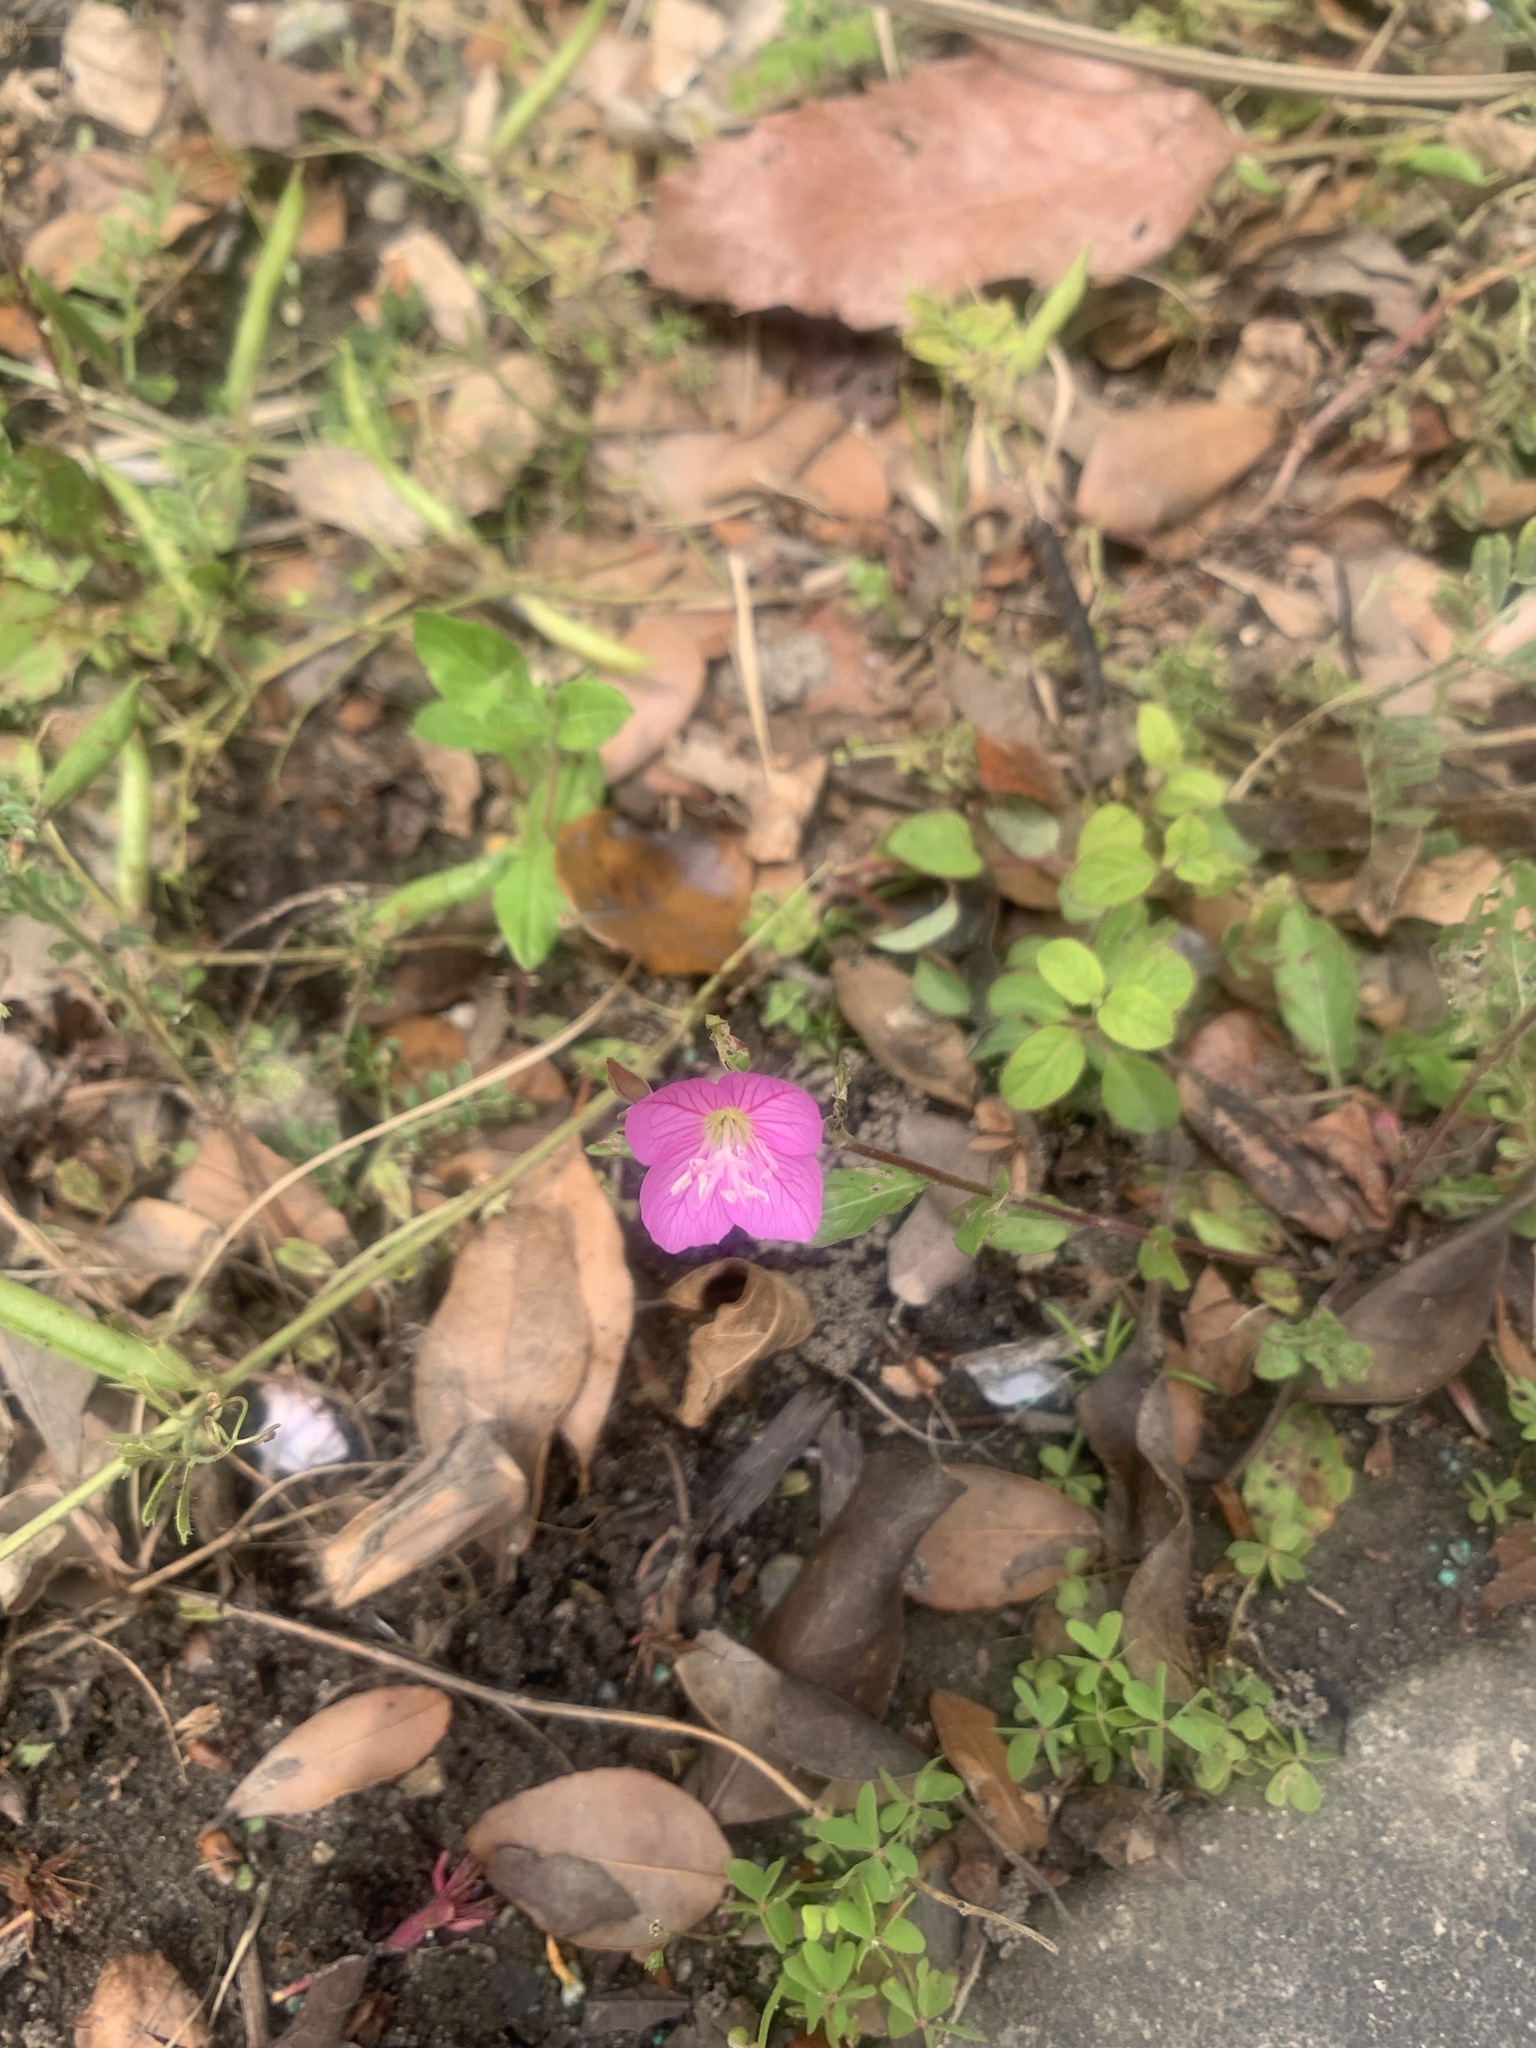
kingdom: Plantae
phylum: Tracheophyta
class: Magnoliopsida
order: Myrtales
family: Onagraceae
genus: Oenothera
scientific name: Oenothera rosea
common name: Rosy evening-primrose
